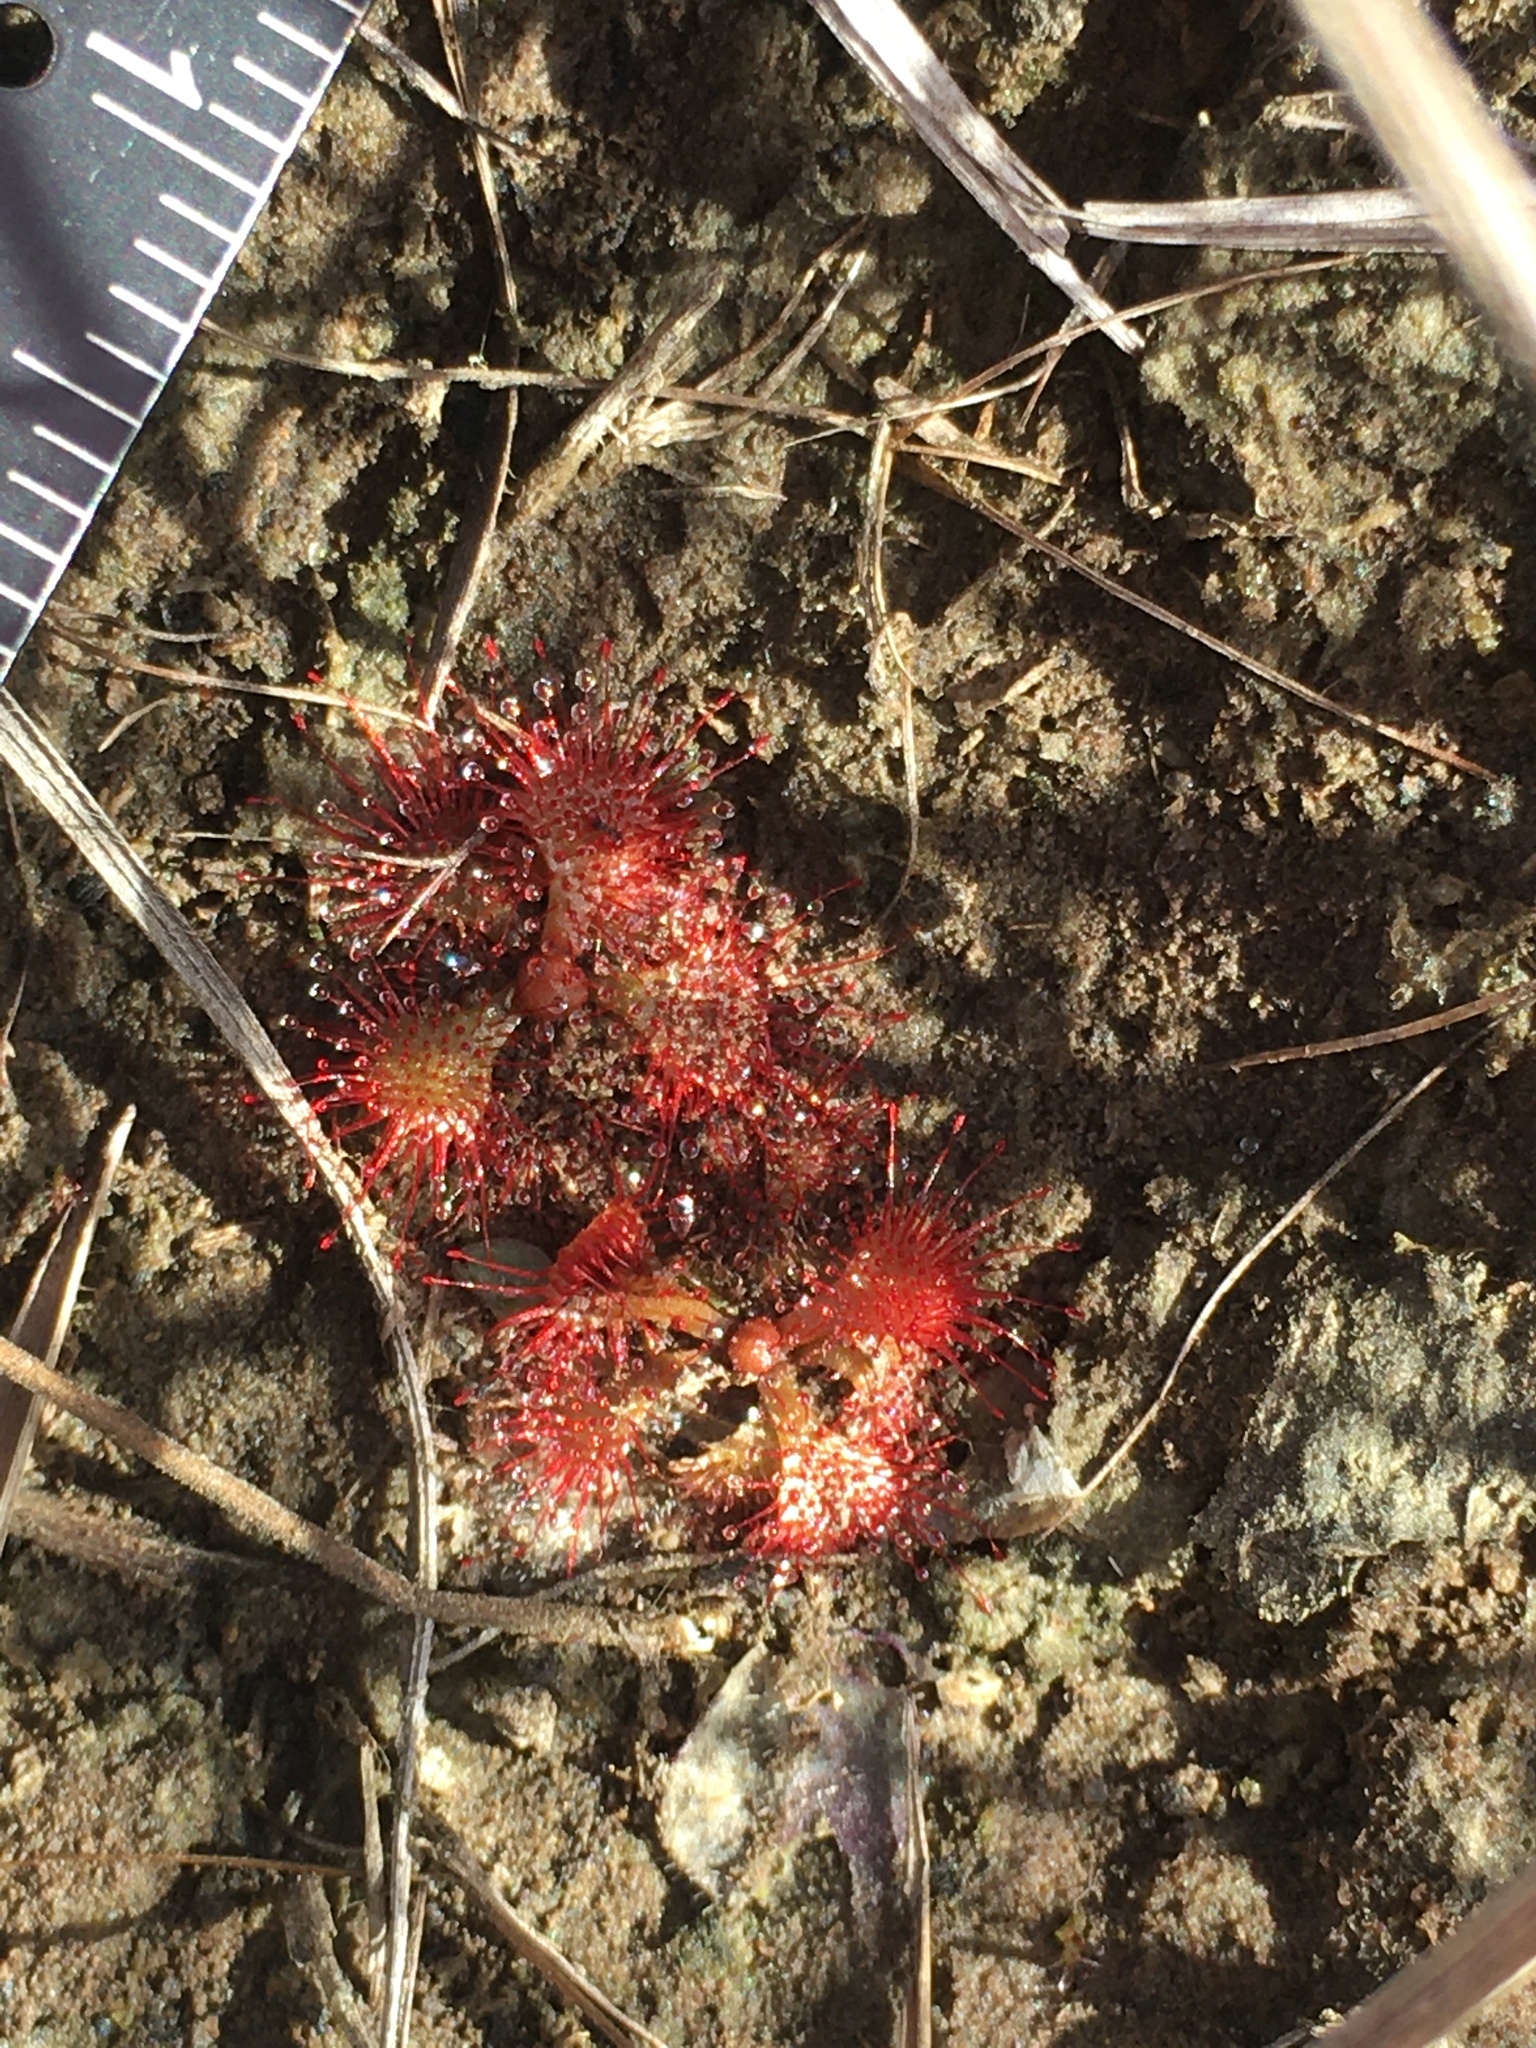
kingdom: Plantae
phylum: Tracheophyta
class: Magnoliopsida
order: Caryophyllales
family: Droseraceae
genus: Drosera
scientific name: Drosera brevifolia
